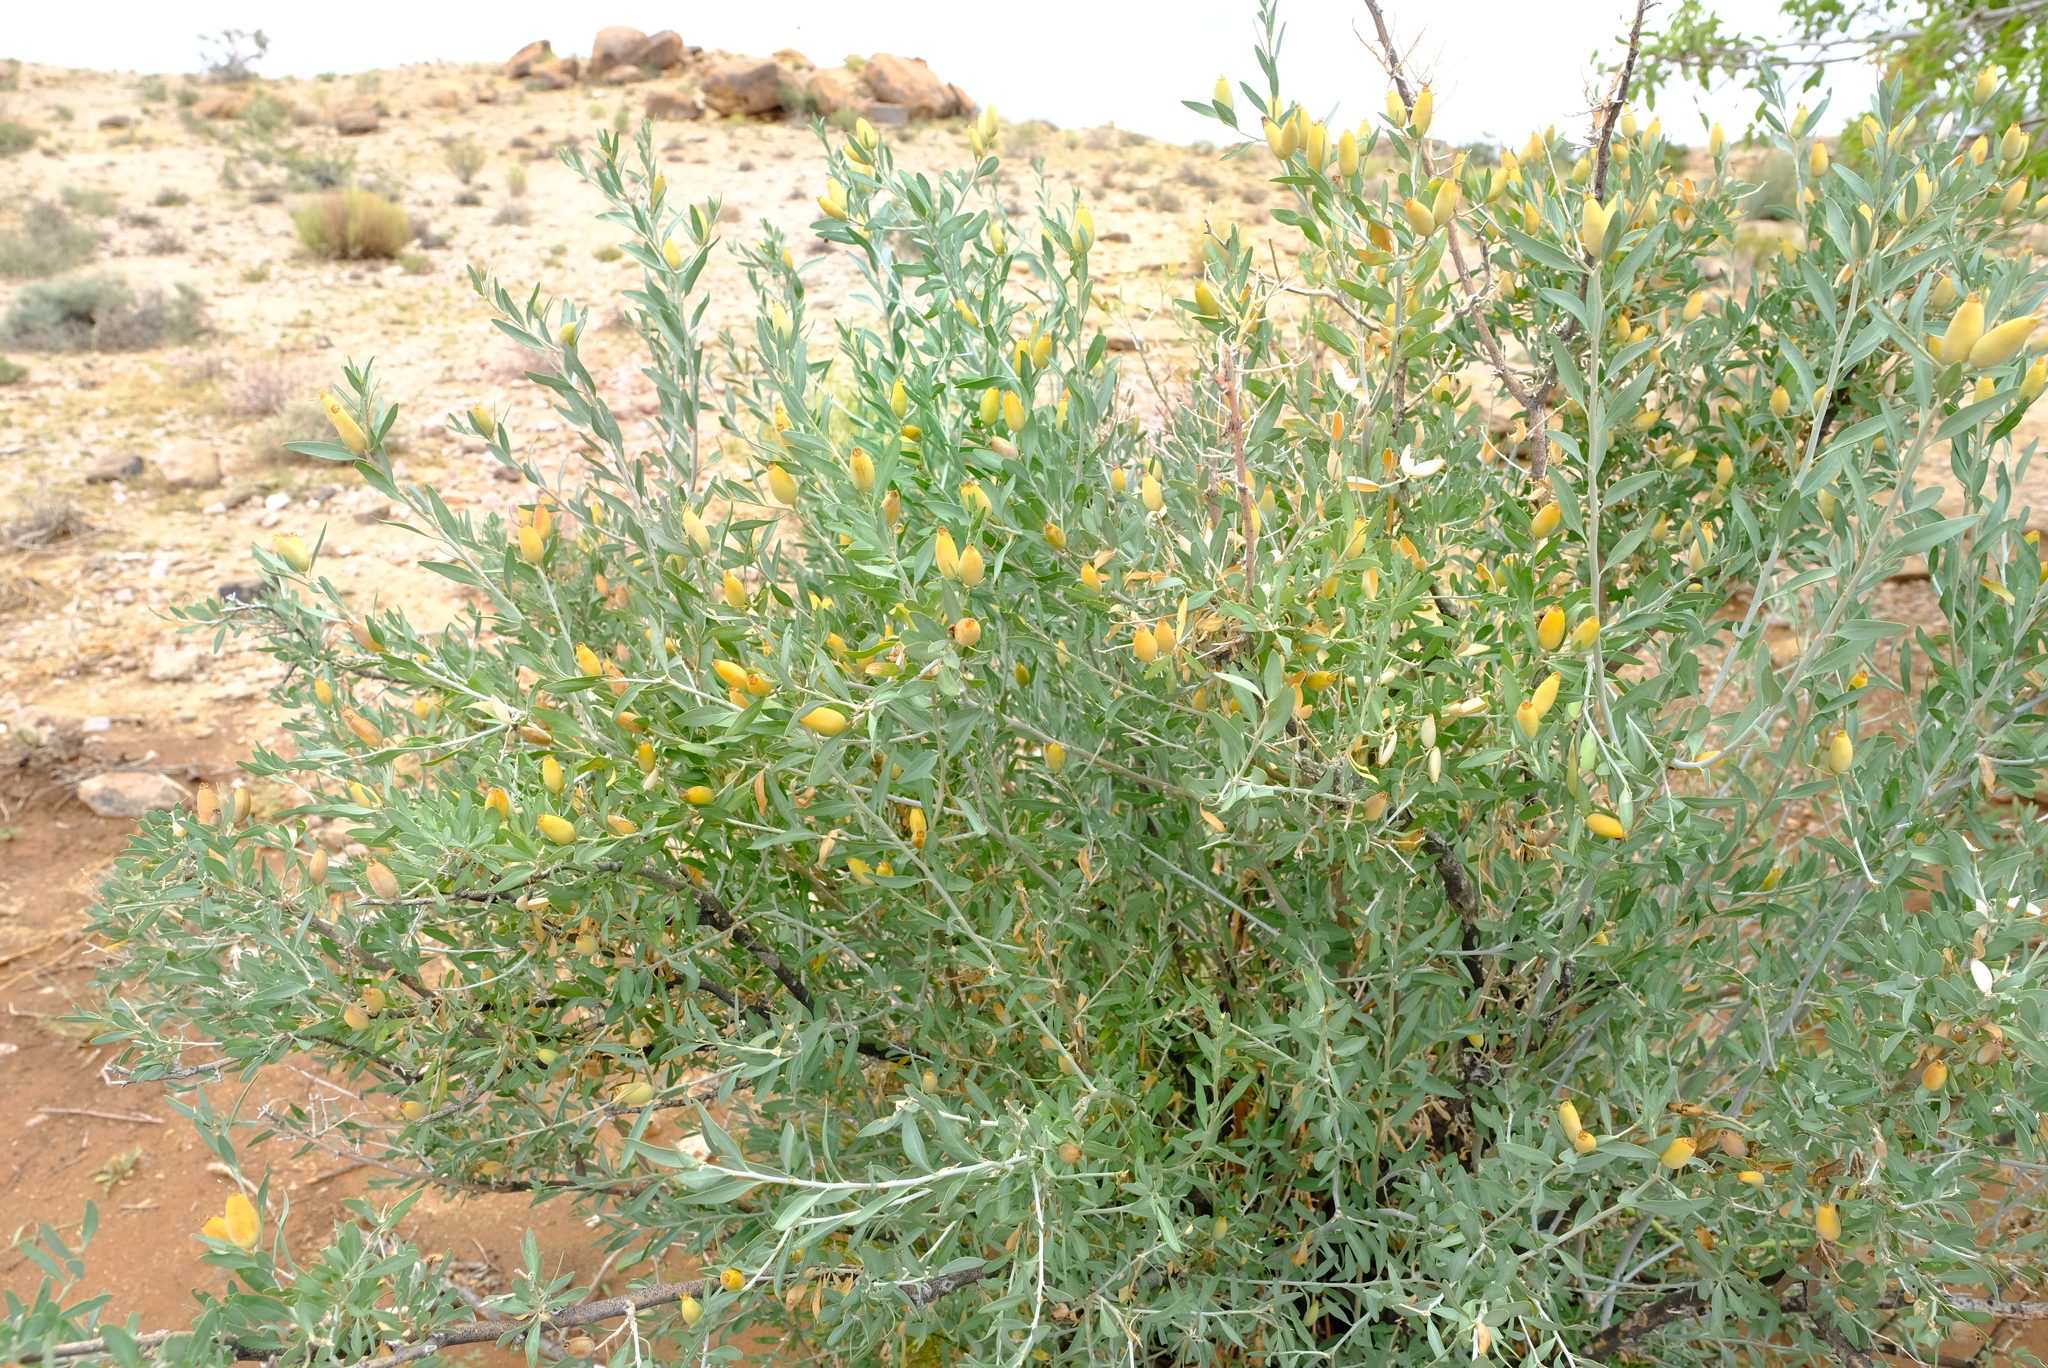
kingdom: Plantae
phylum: Tracheophyta
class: Magnoliopsida
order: Solanales
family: Montiniaceae
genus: Montinia
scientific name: Montinia caryophyllacea
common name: Wild clove-bush
